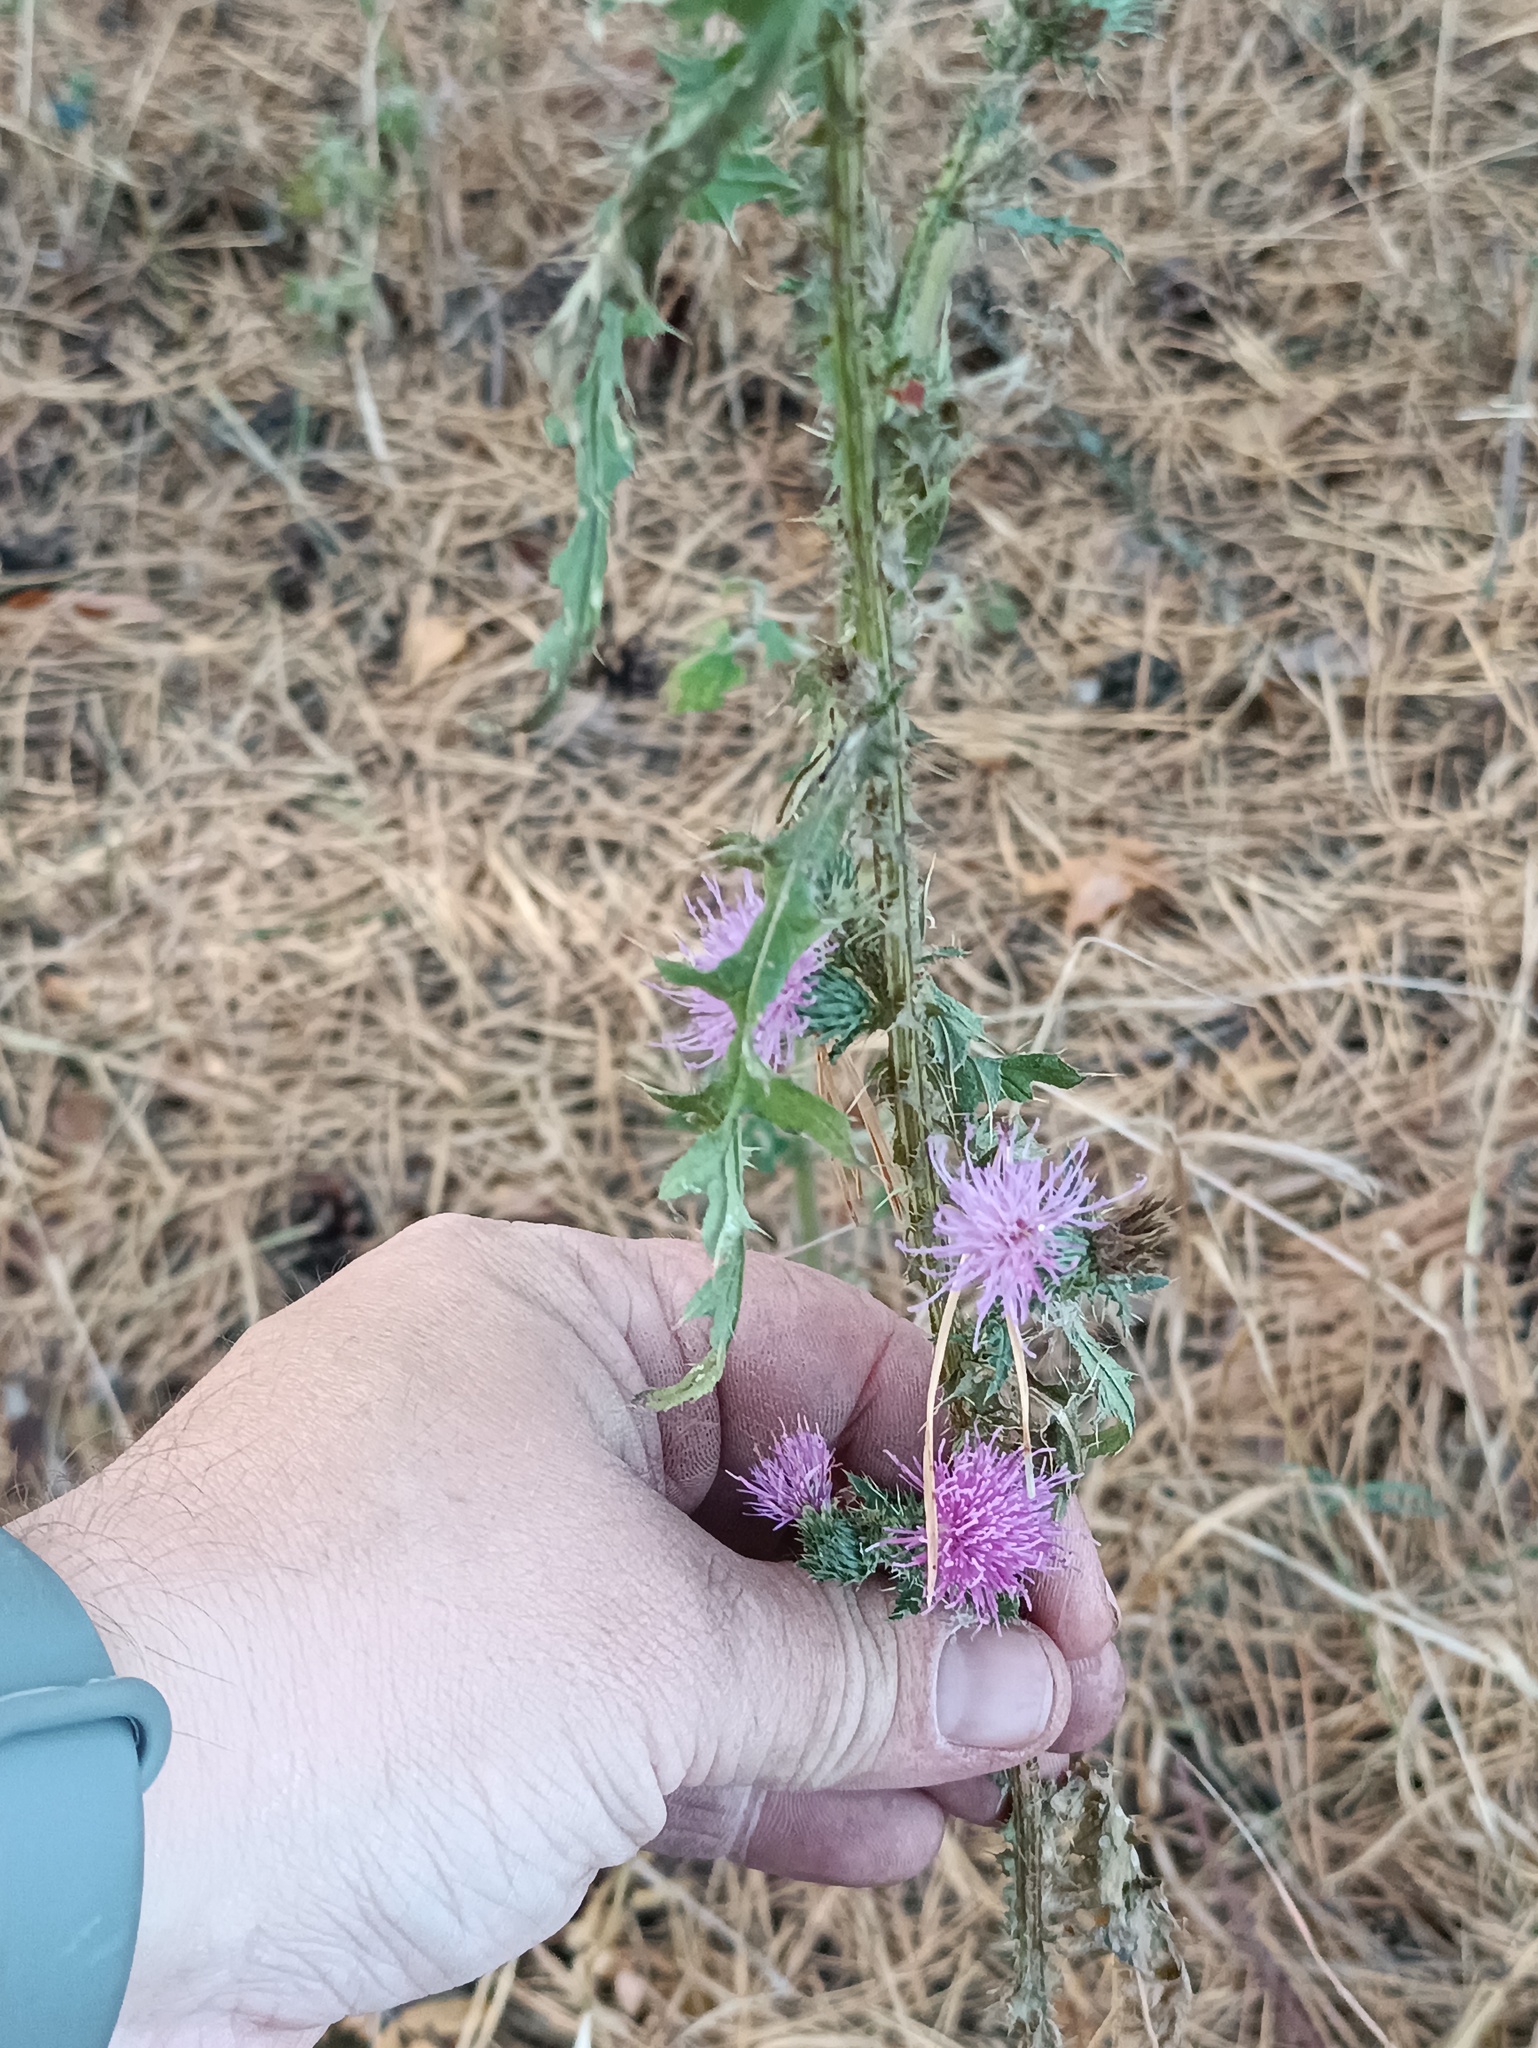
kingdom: Plantae
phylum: Tracheophyta
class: Magnoliopsida
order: Asterales
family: Asteraceae
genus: Carduus
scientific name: Carduus acanthoides
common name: Plumeless thistle
